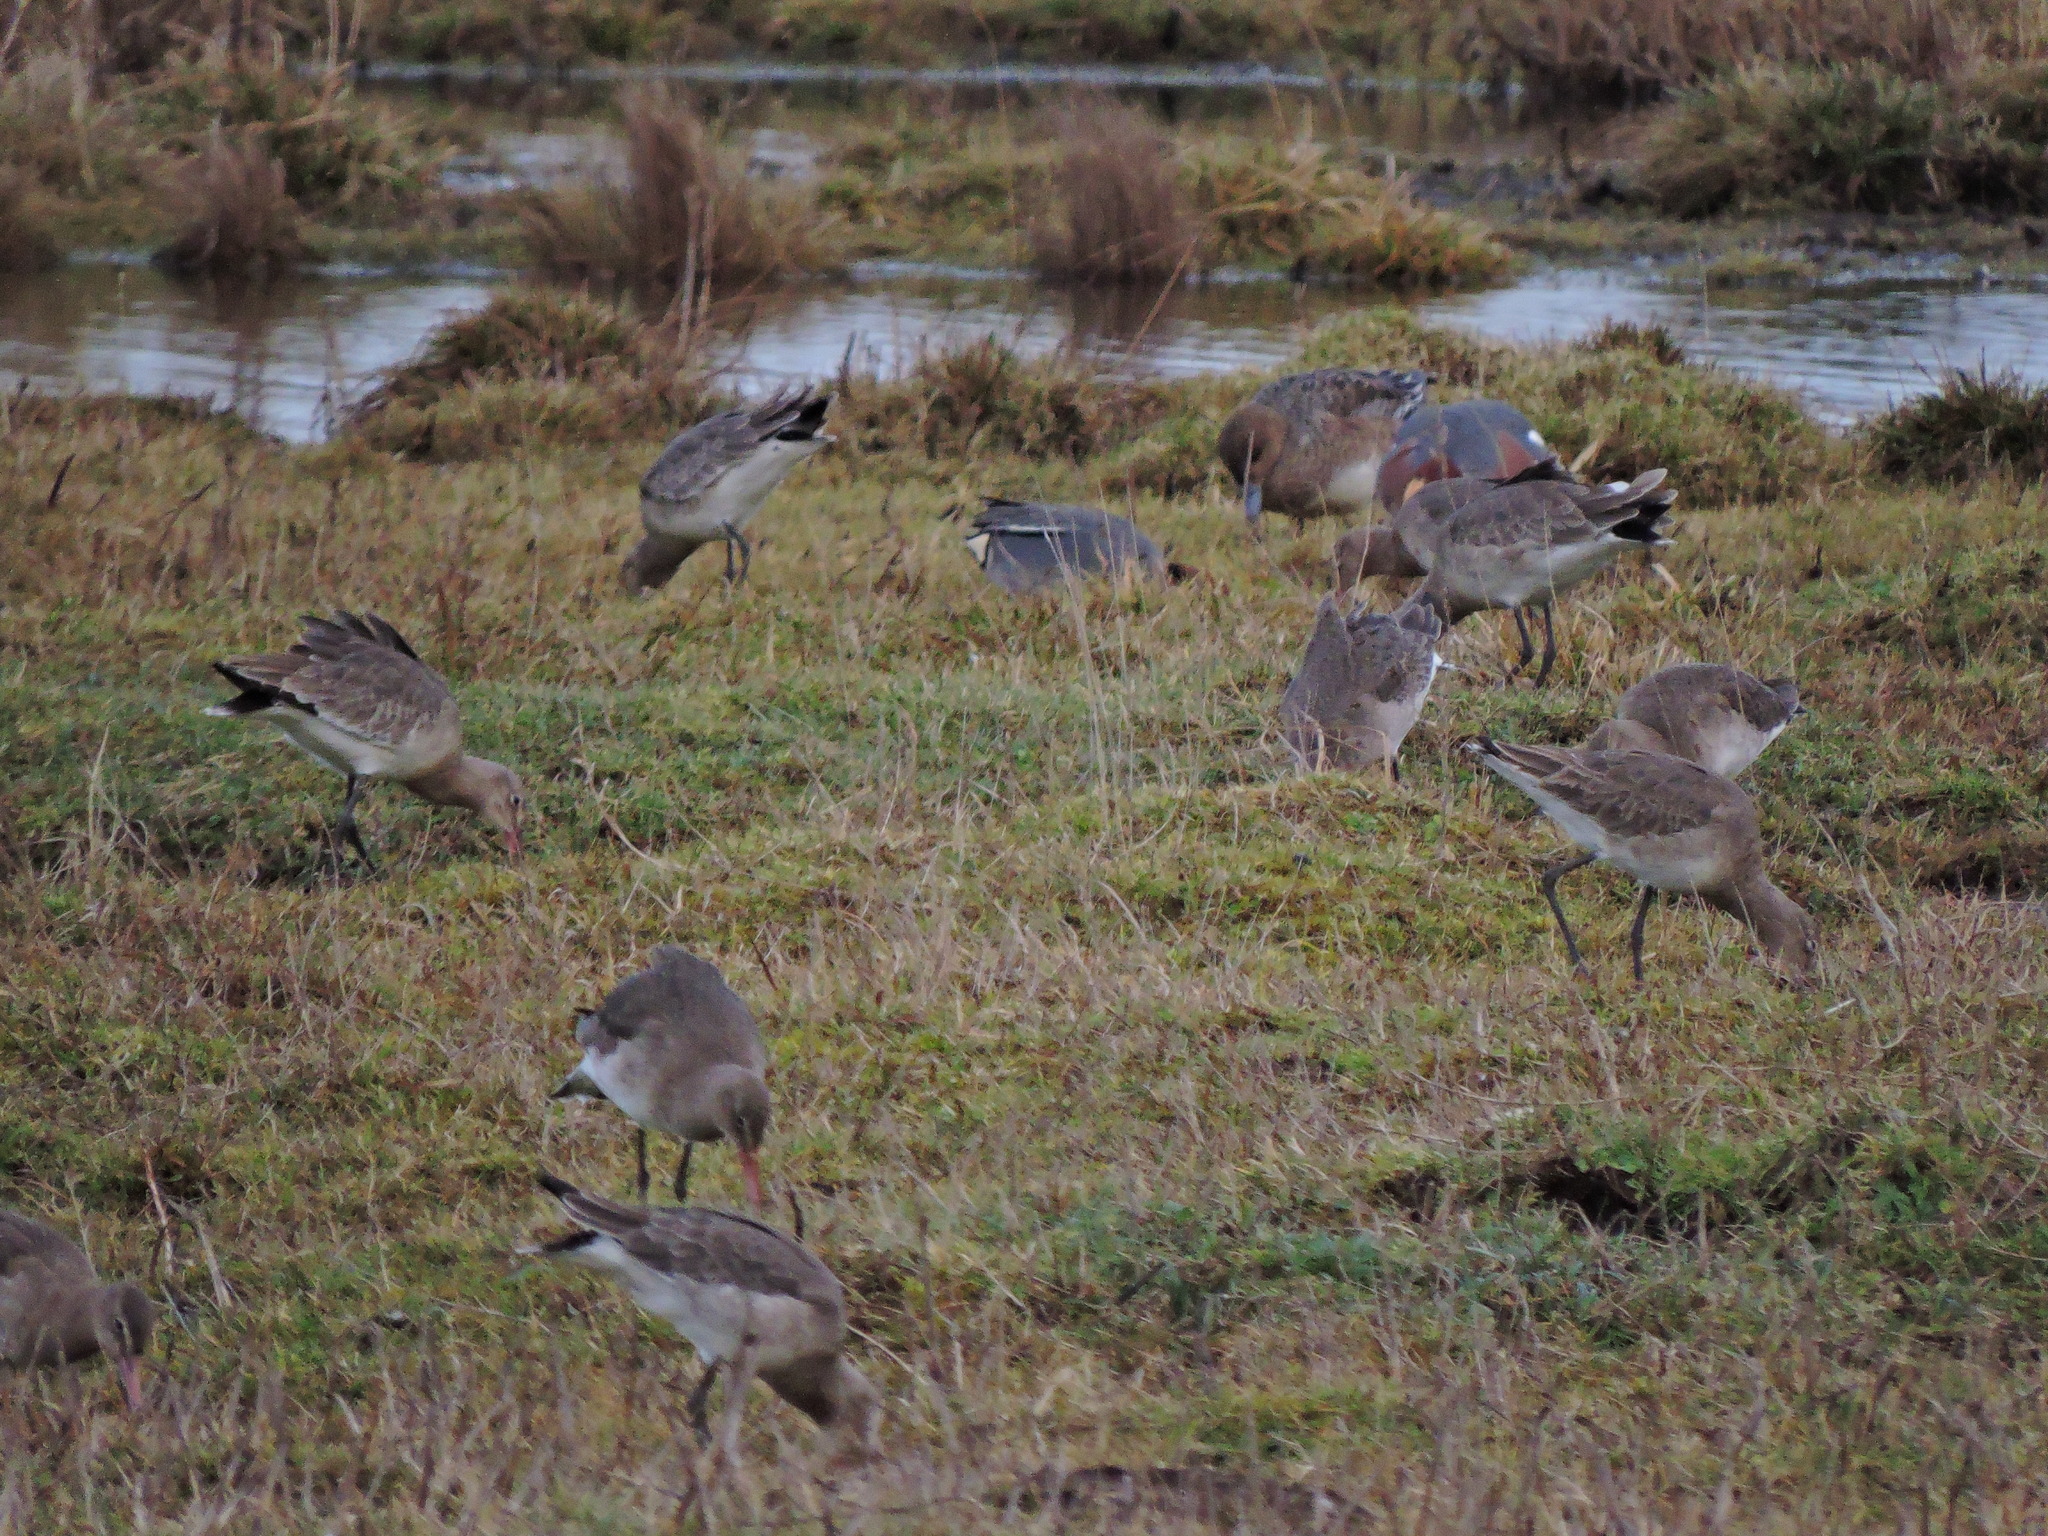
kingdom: Animalia
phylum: Chordata
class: Aves
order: Charadriiformes
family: Scolopacidae
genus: Limosa
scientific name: Limosa limosa
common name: Black-tailed godwit
